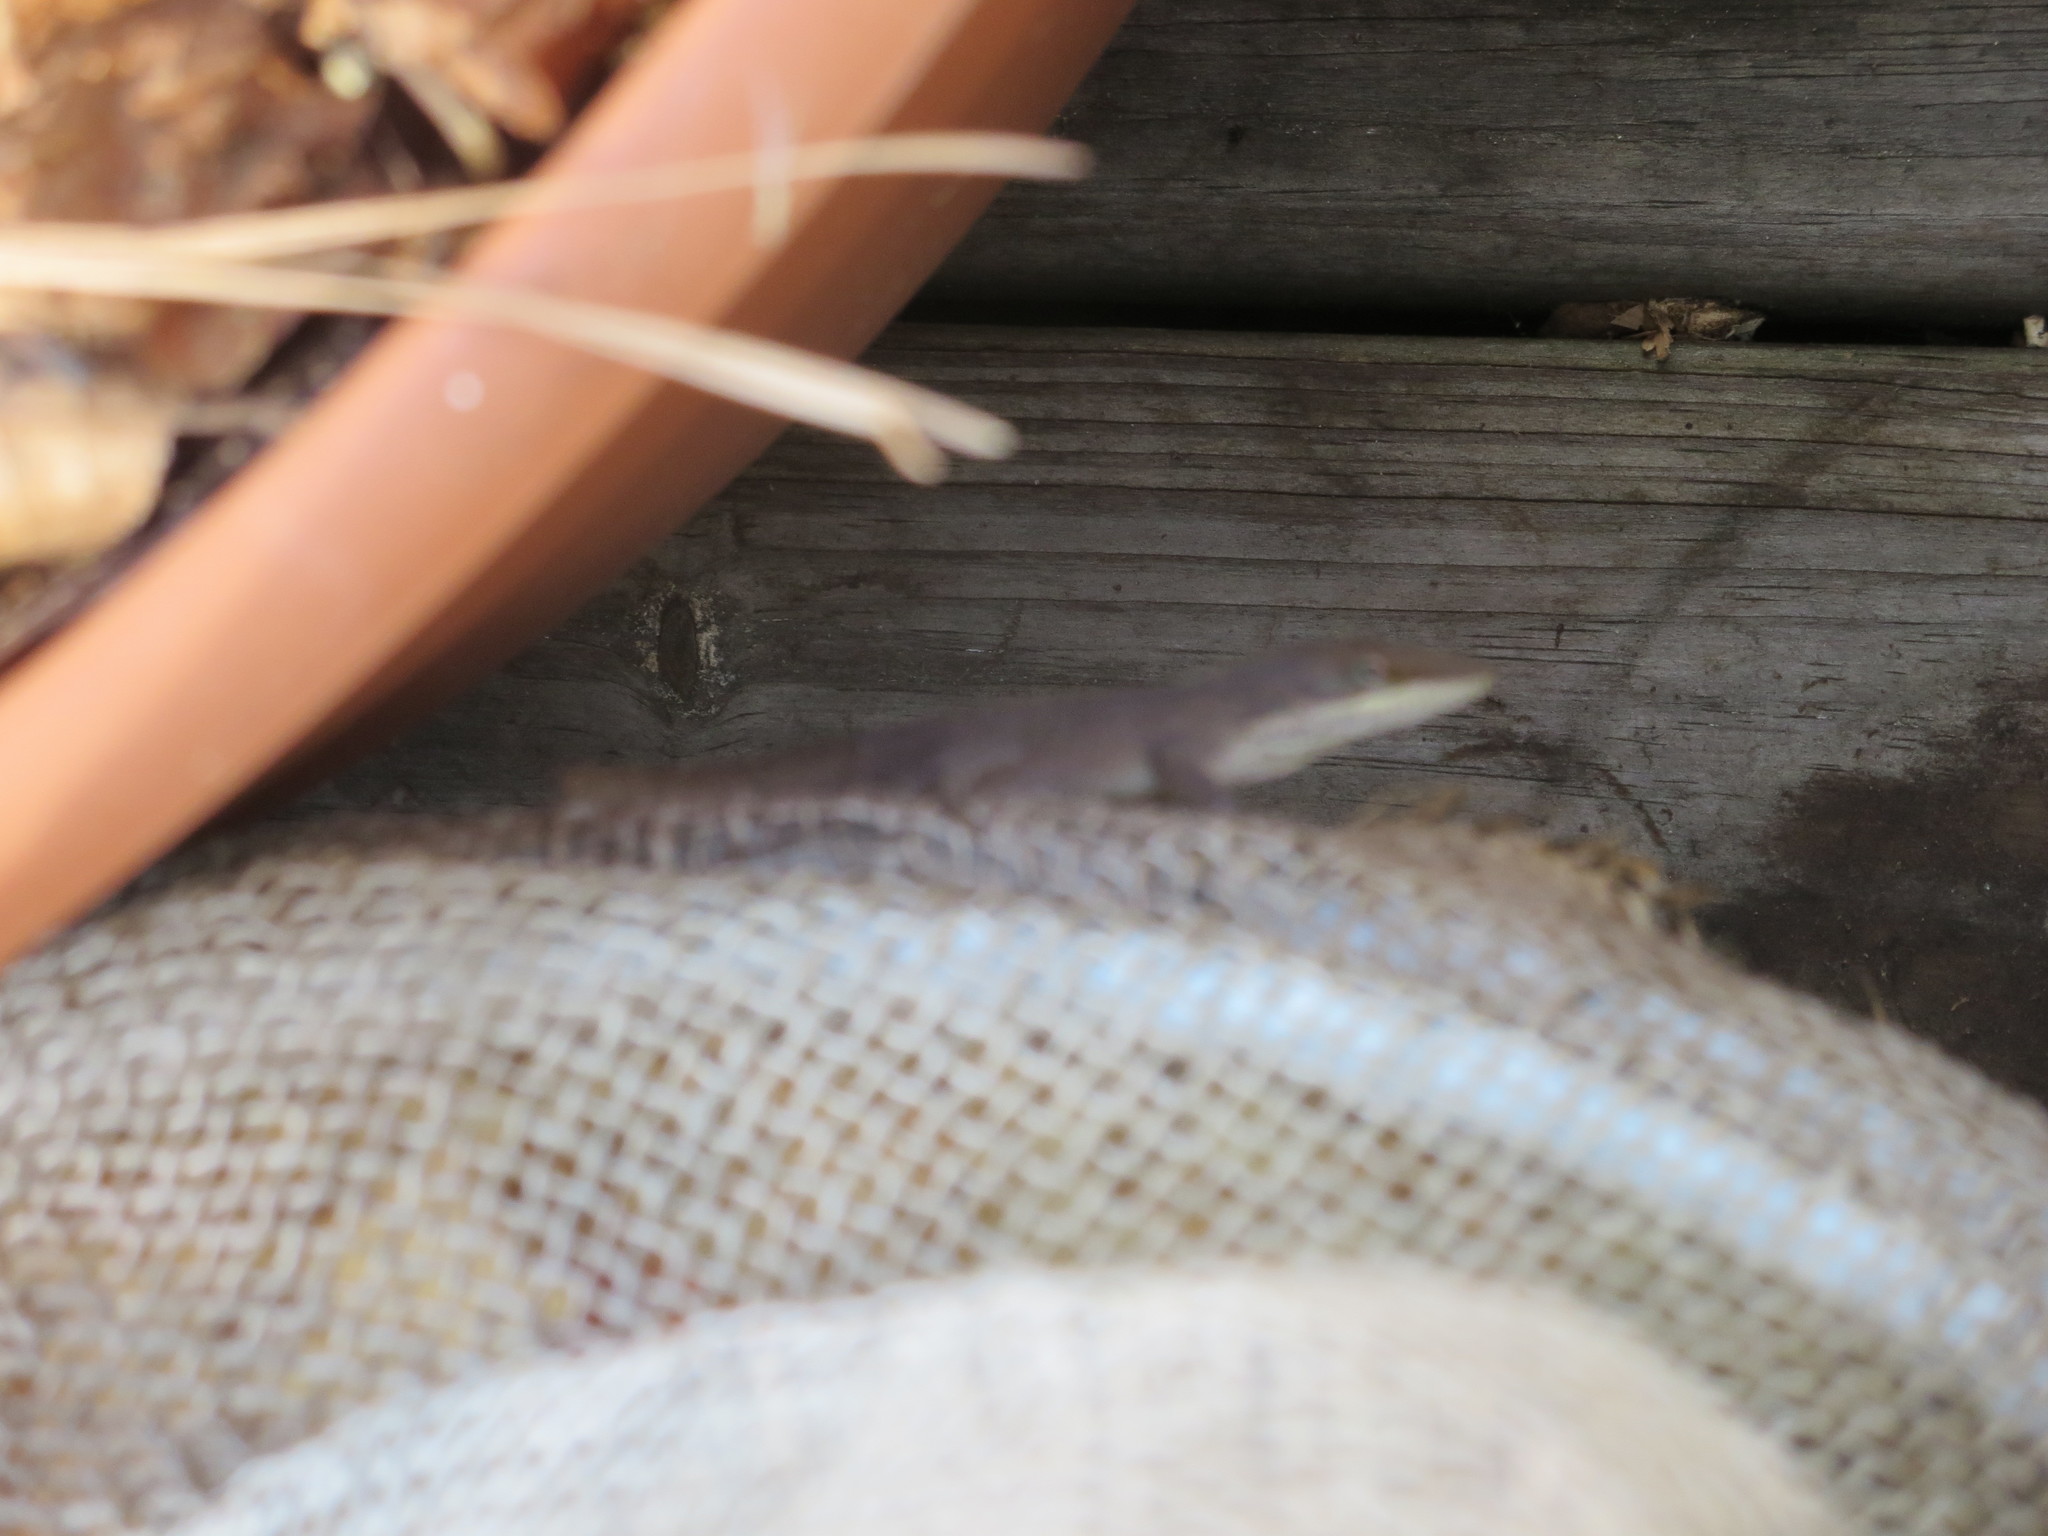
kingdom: Animalia
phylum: Chordata
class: Squamata
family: Dactyloidae
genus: Anolis
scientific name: Anolis carolinensis
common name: Green anole
